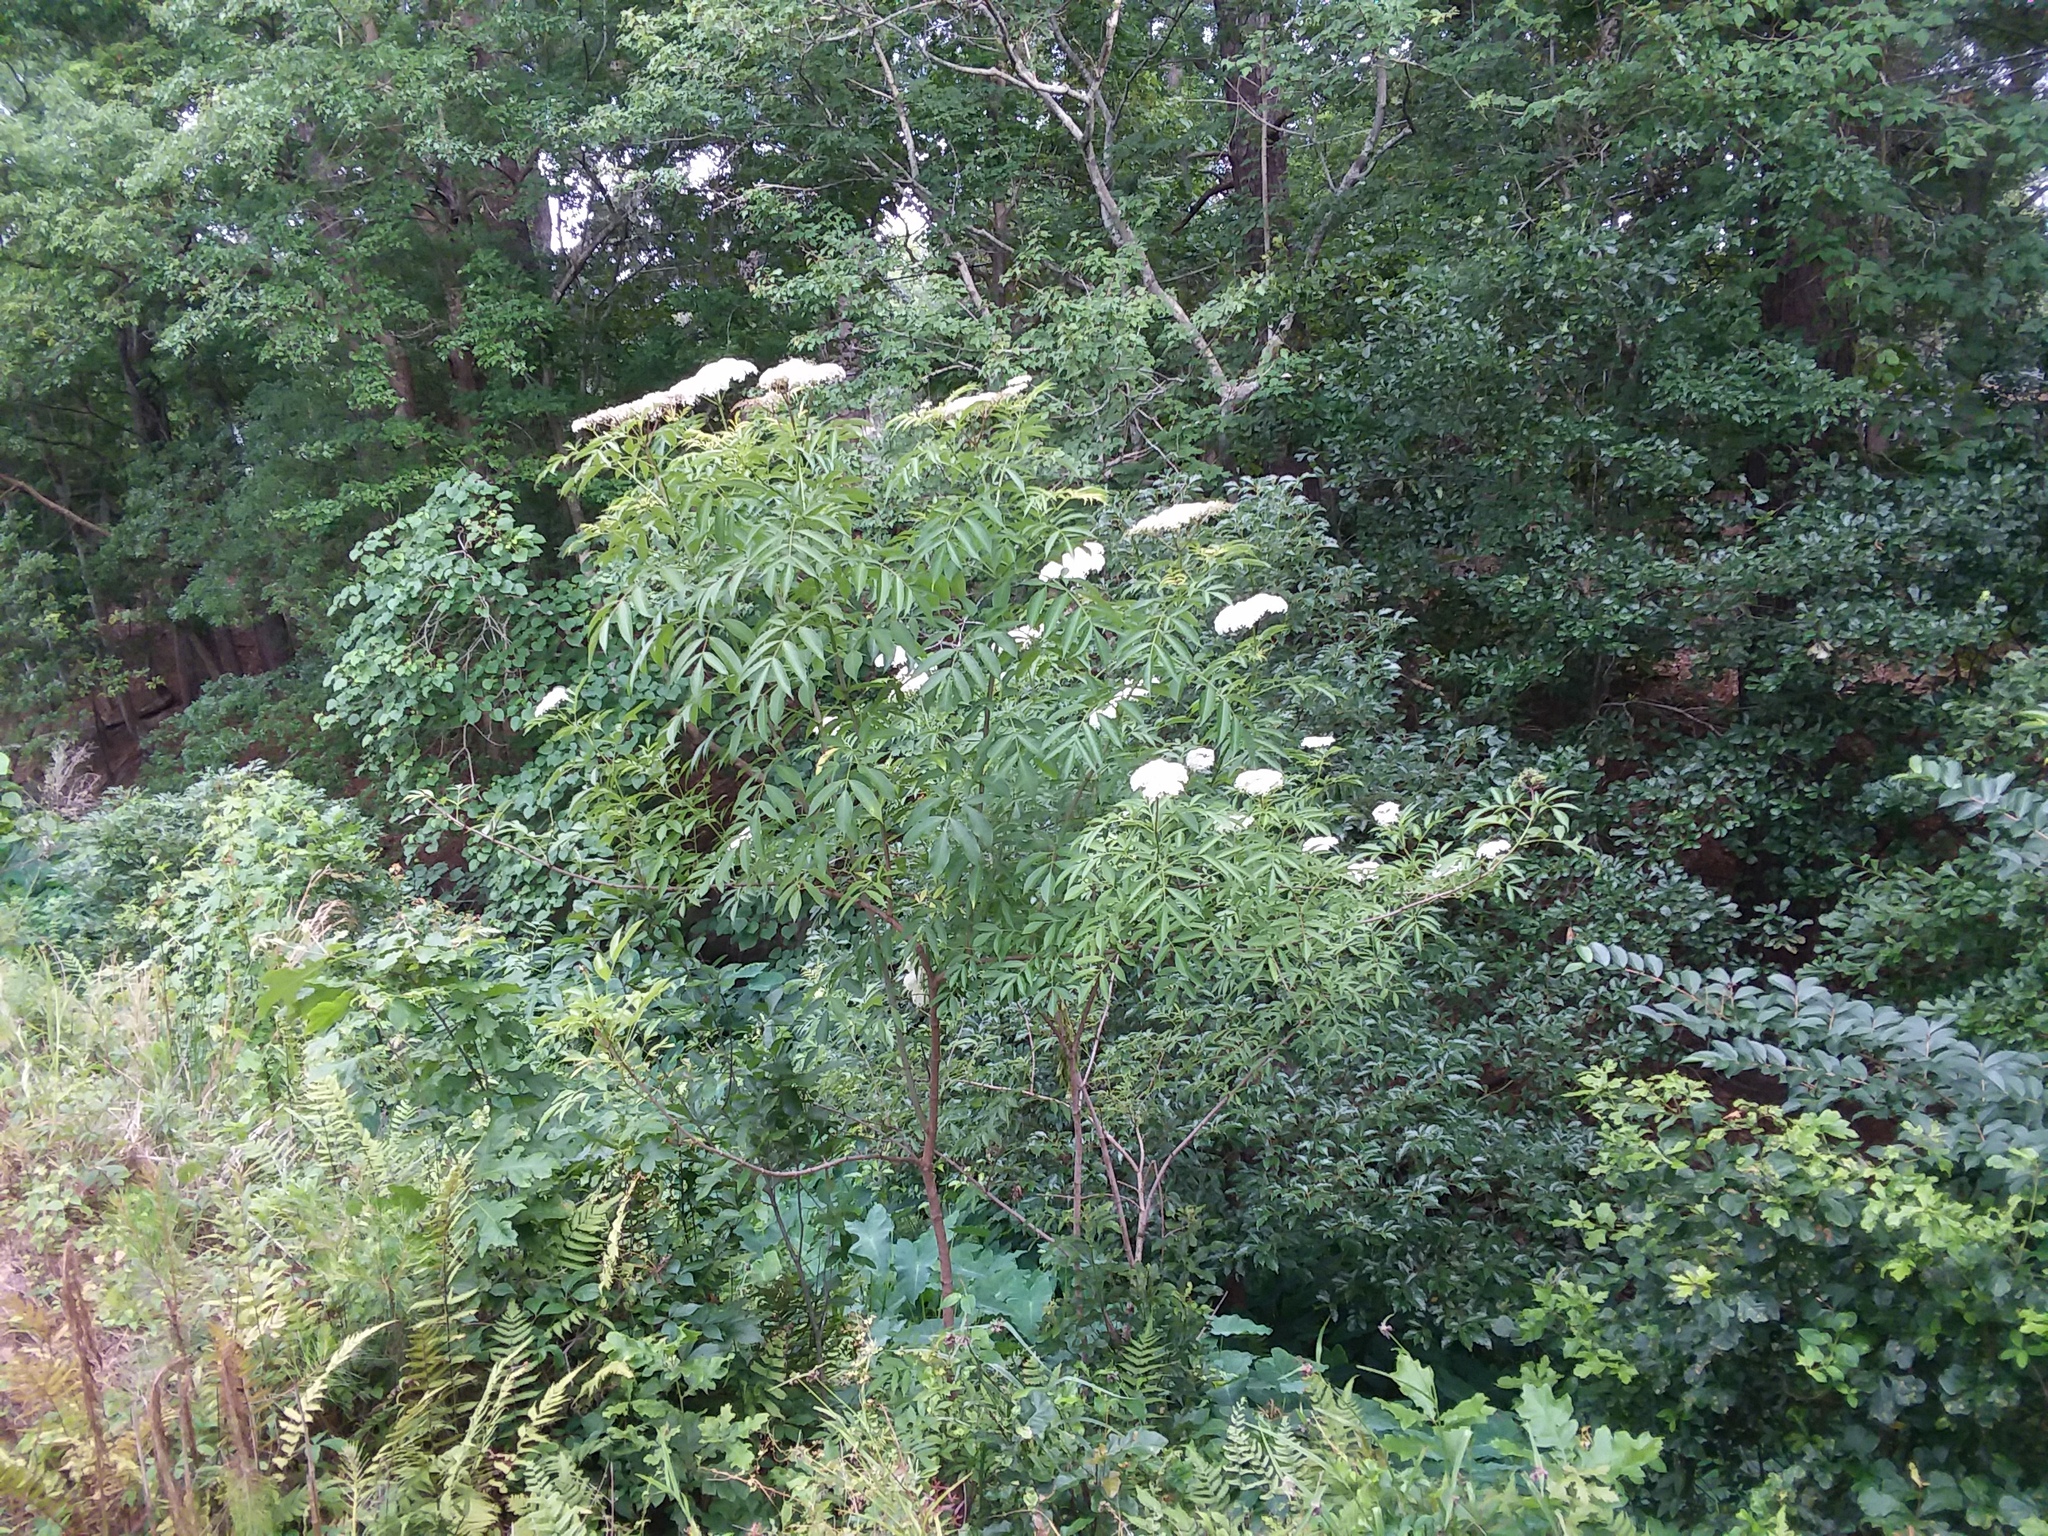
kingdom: Plantae
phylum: Tracheophyta
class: Magnoliopsida
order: Dipsacales
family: Viburnaceae
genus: Sambucus
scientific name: Sambucus canadensis
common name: American elder
